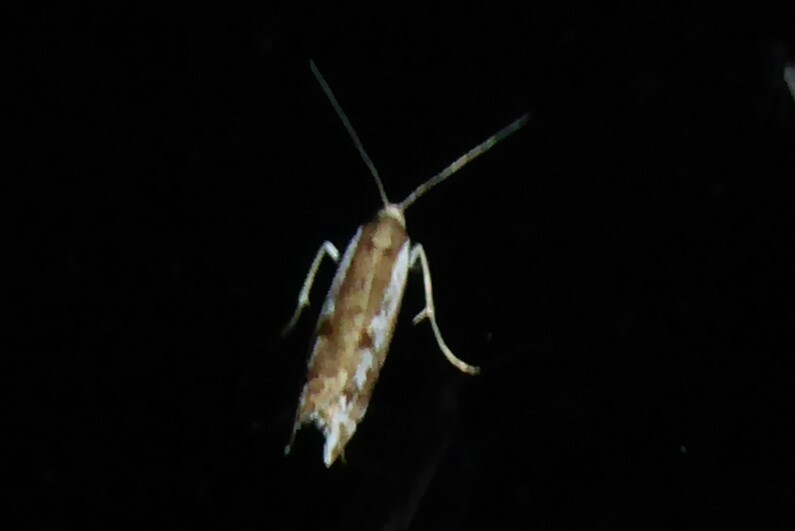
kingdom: Animalia
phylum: Arthropoda
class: Insecta
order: Lepidoptera
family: Crambidae
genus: Orocrambus
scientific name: Orocrambus vulgaris
